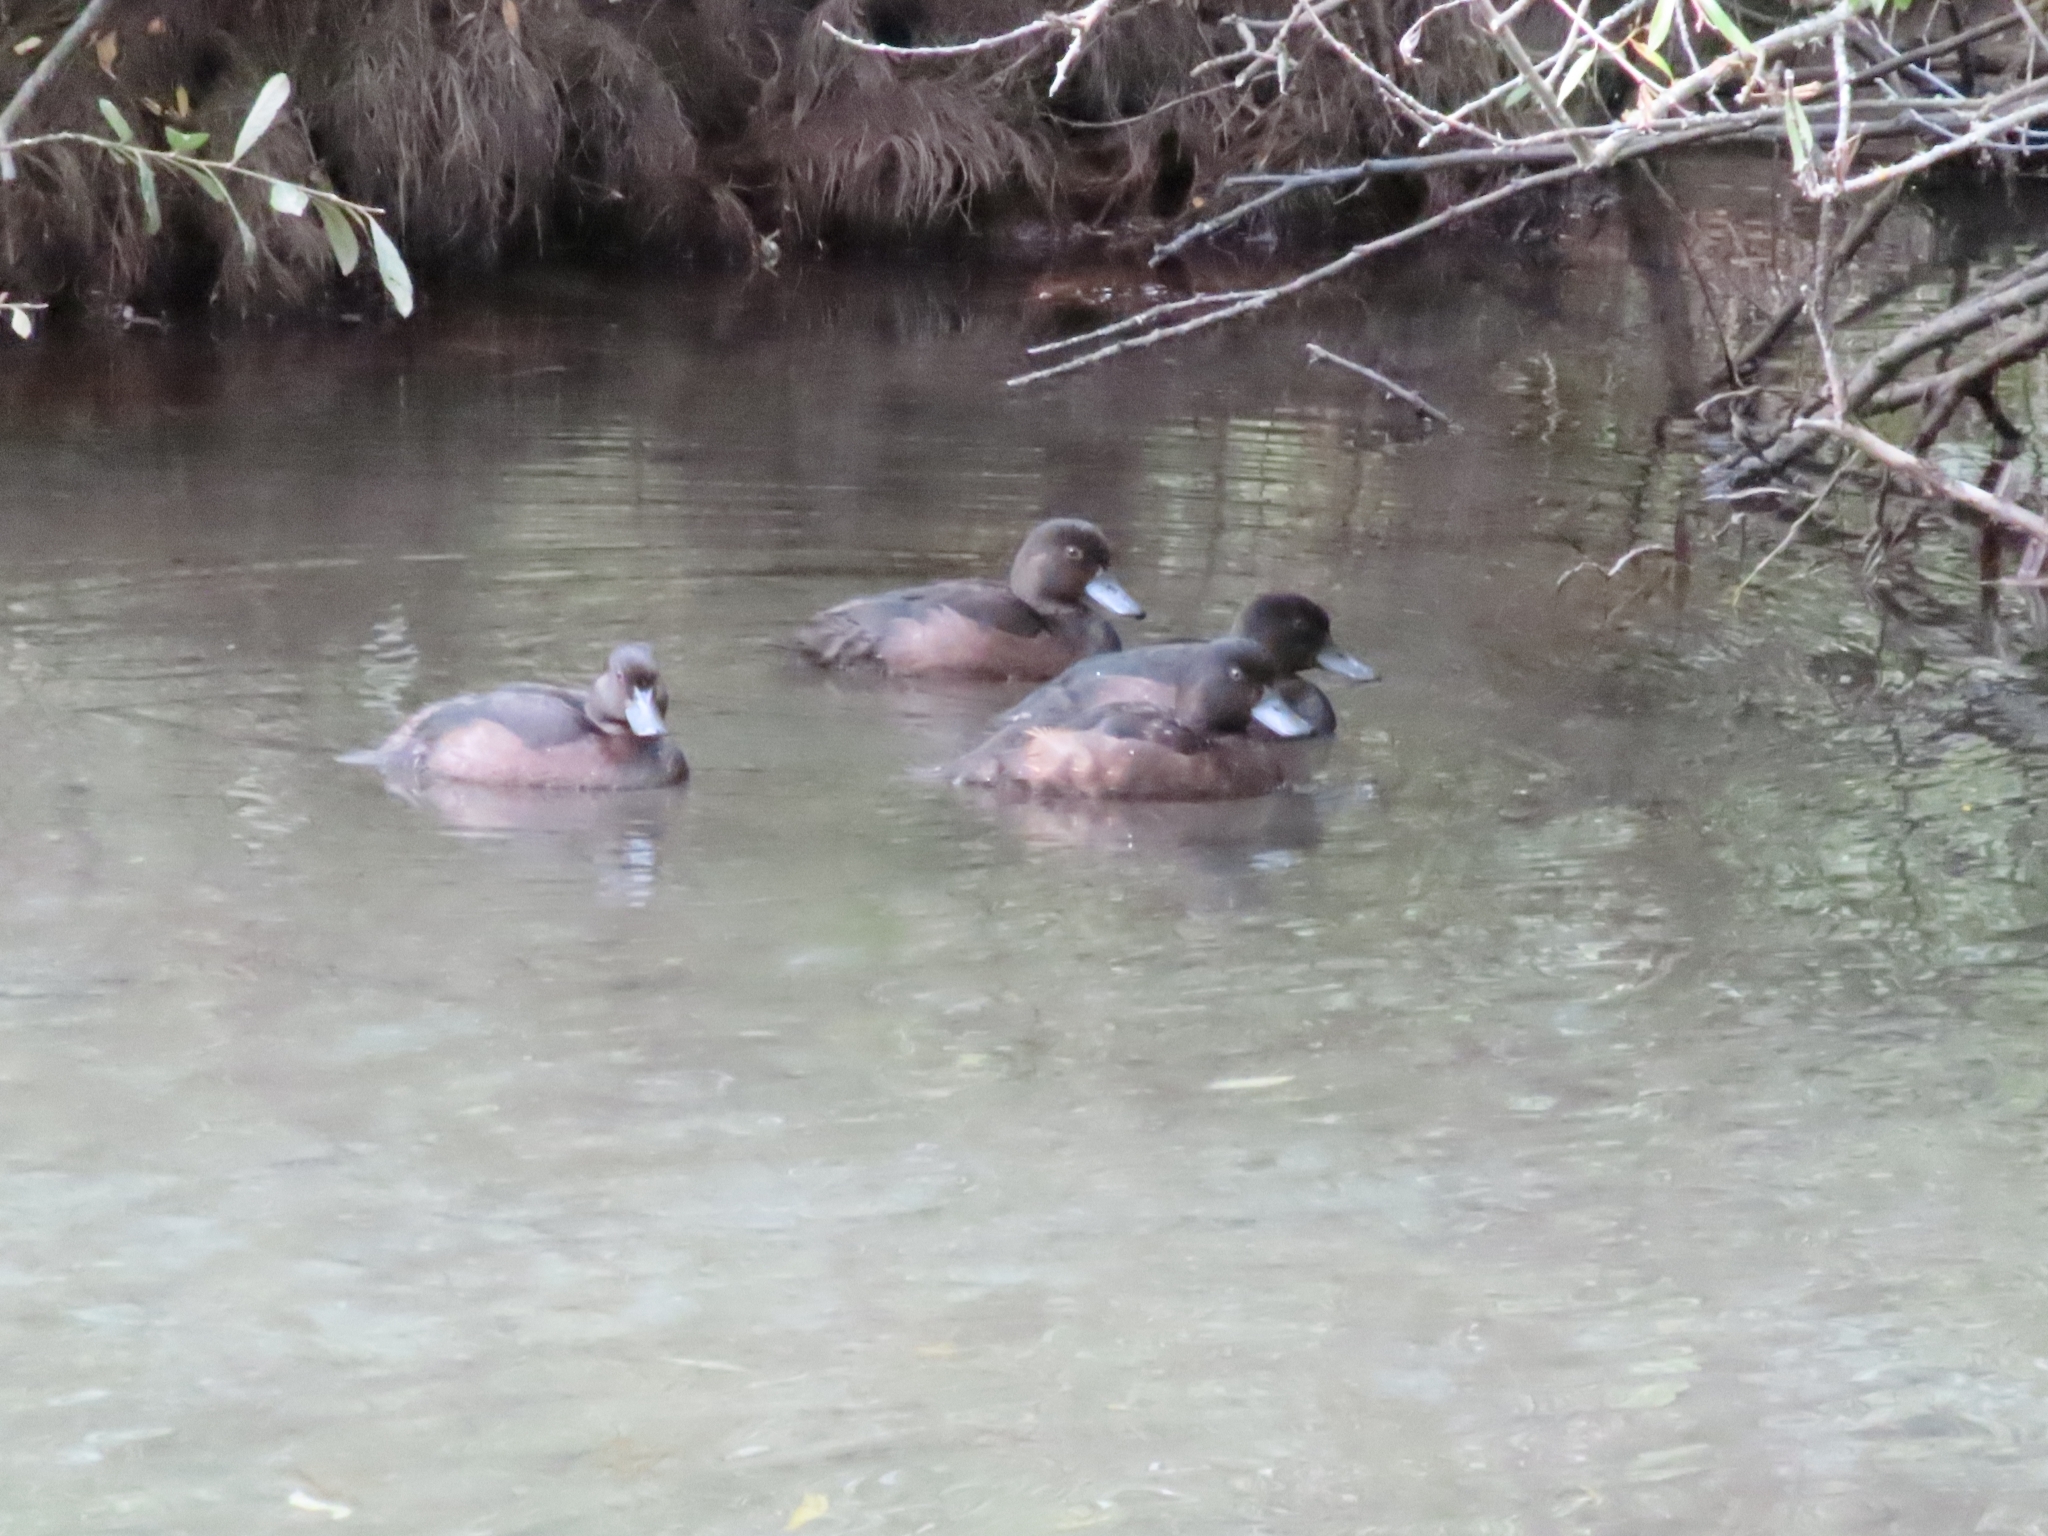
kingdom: Animalia
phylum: Chordata
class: Aves
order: Anseriformes
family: Anatidae
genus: Aythya
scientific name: Aythya novaeseelandiae
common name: New zealand scaup
